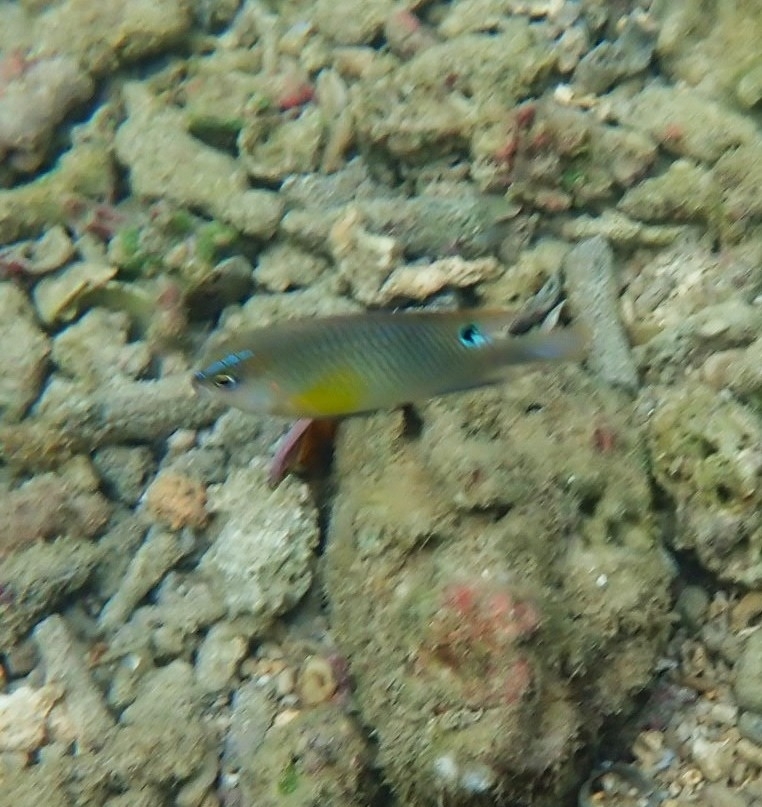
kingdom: Animalia
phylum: Chordata
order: Perciformes
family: Pomacentridae
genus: Chrysiptera
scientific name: Chrysiptera unimaculata
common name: Onespot demoiselle
